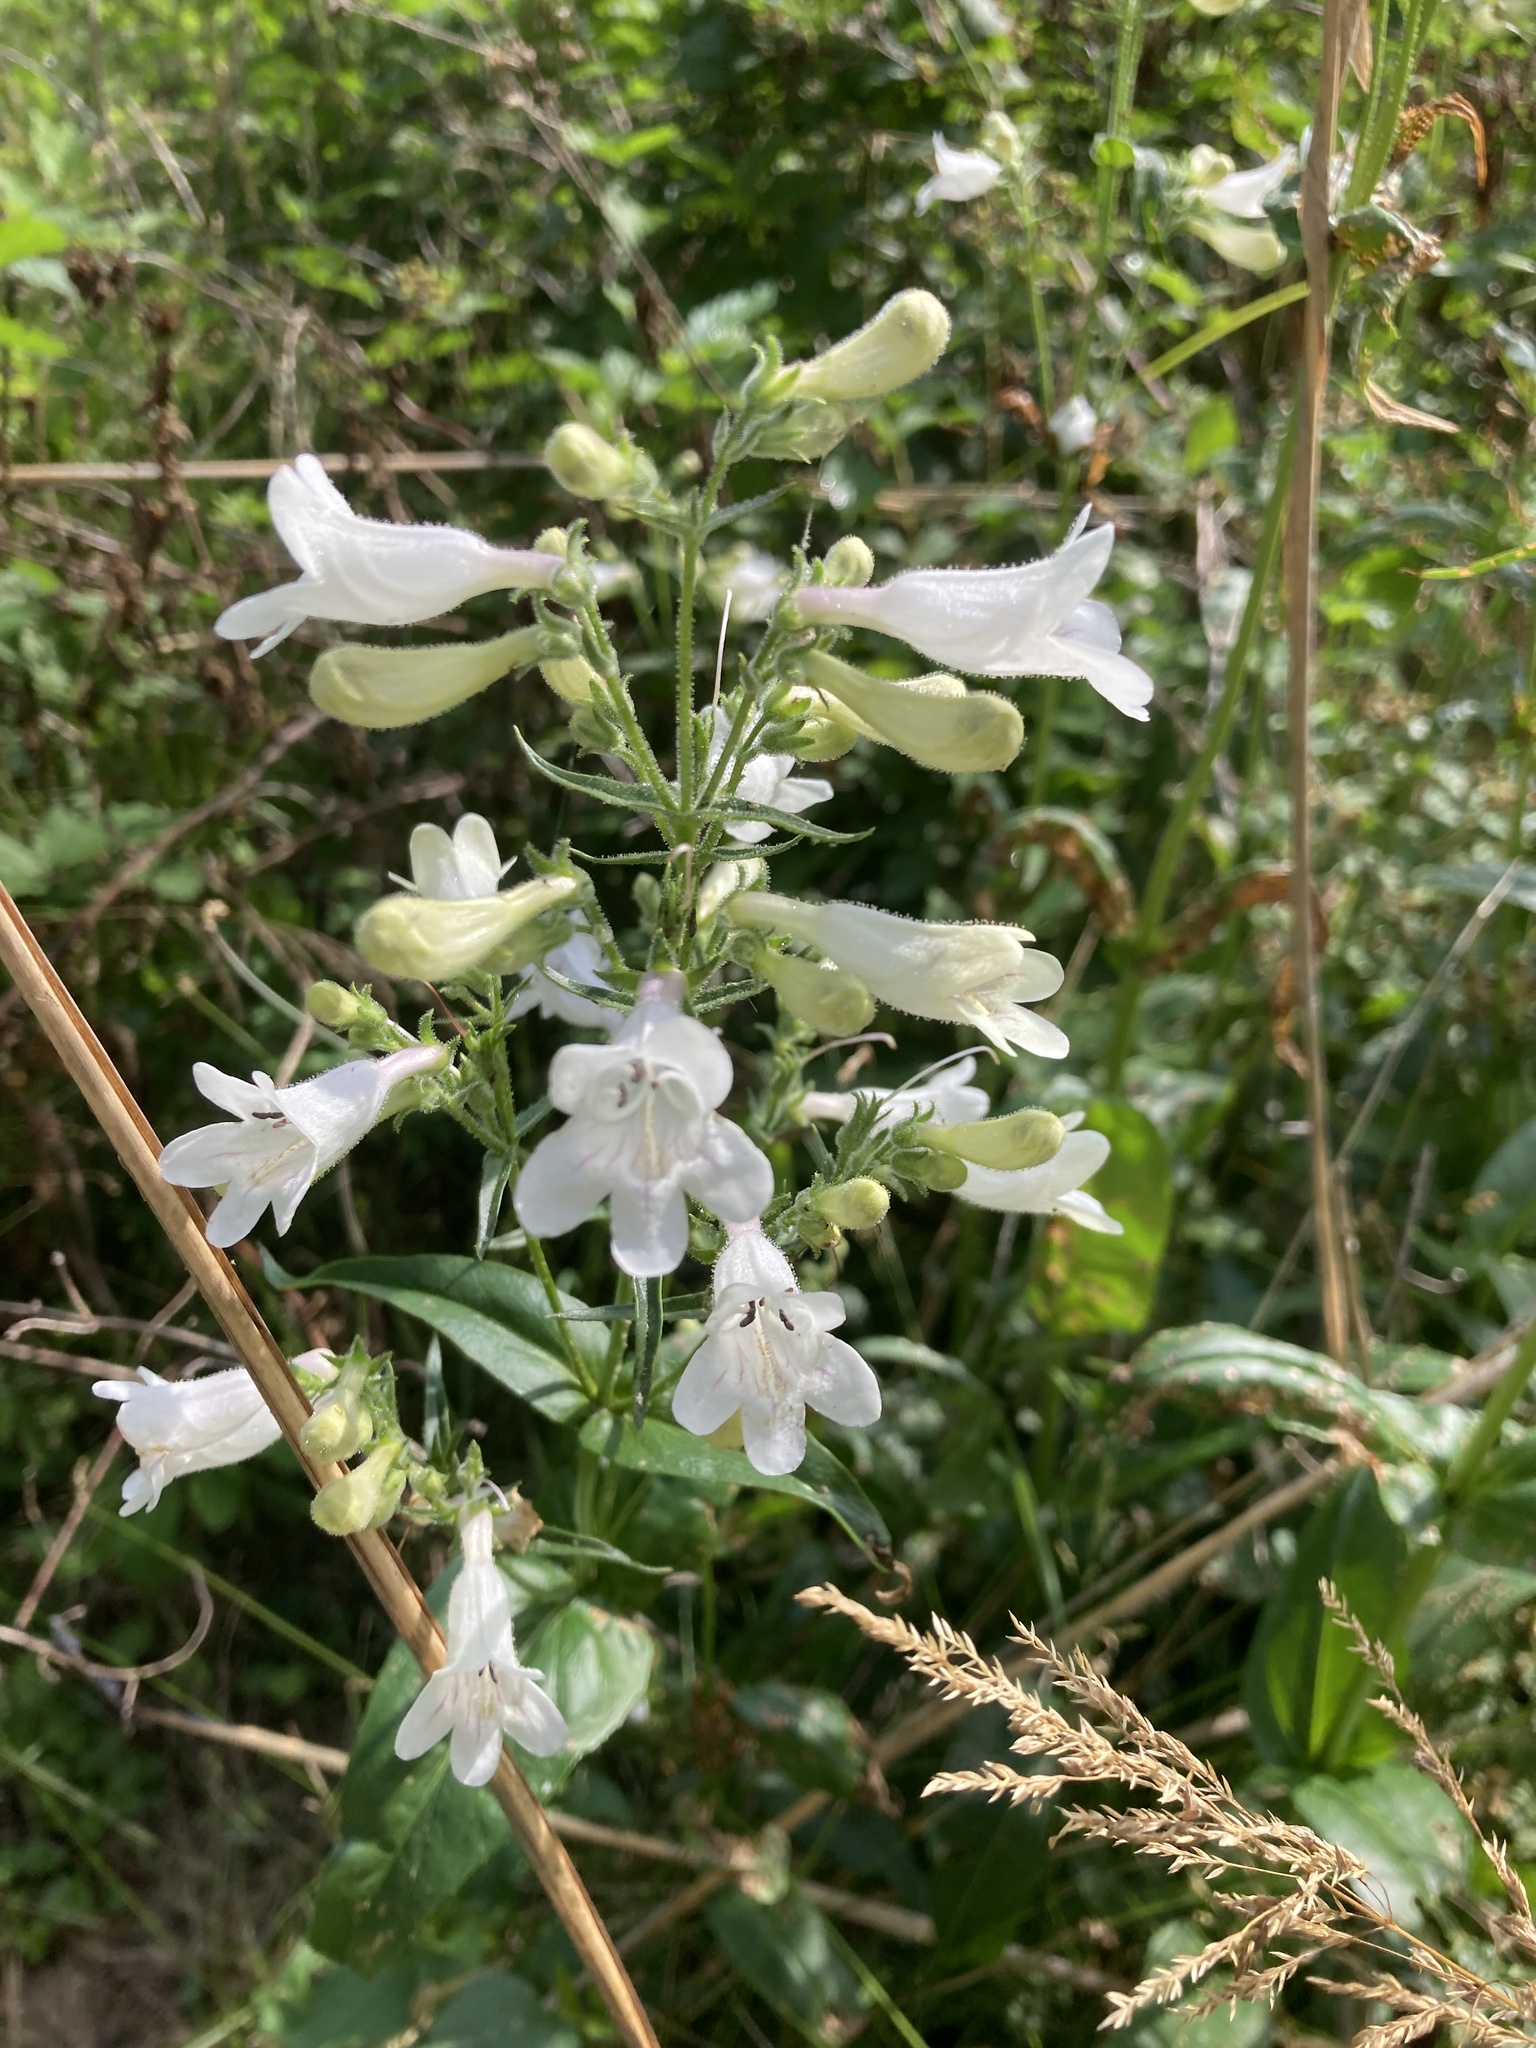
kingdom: Plantae
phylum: Tracheophyta
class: Magnoliopsida
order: Lamiales
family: Plantaginaceae
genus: Penstemon
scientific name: Penstemon digitalis
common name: Foxglove beardtongue
